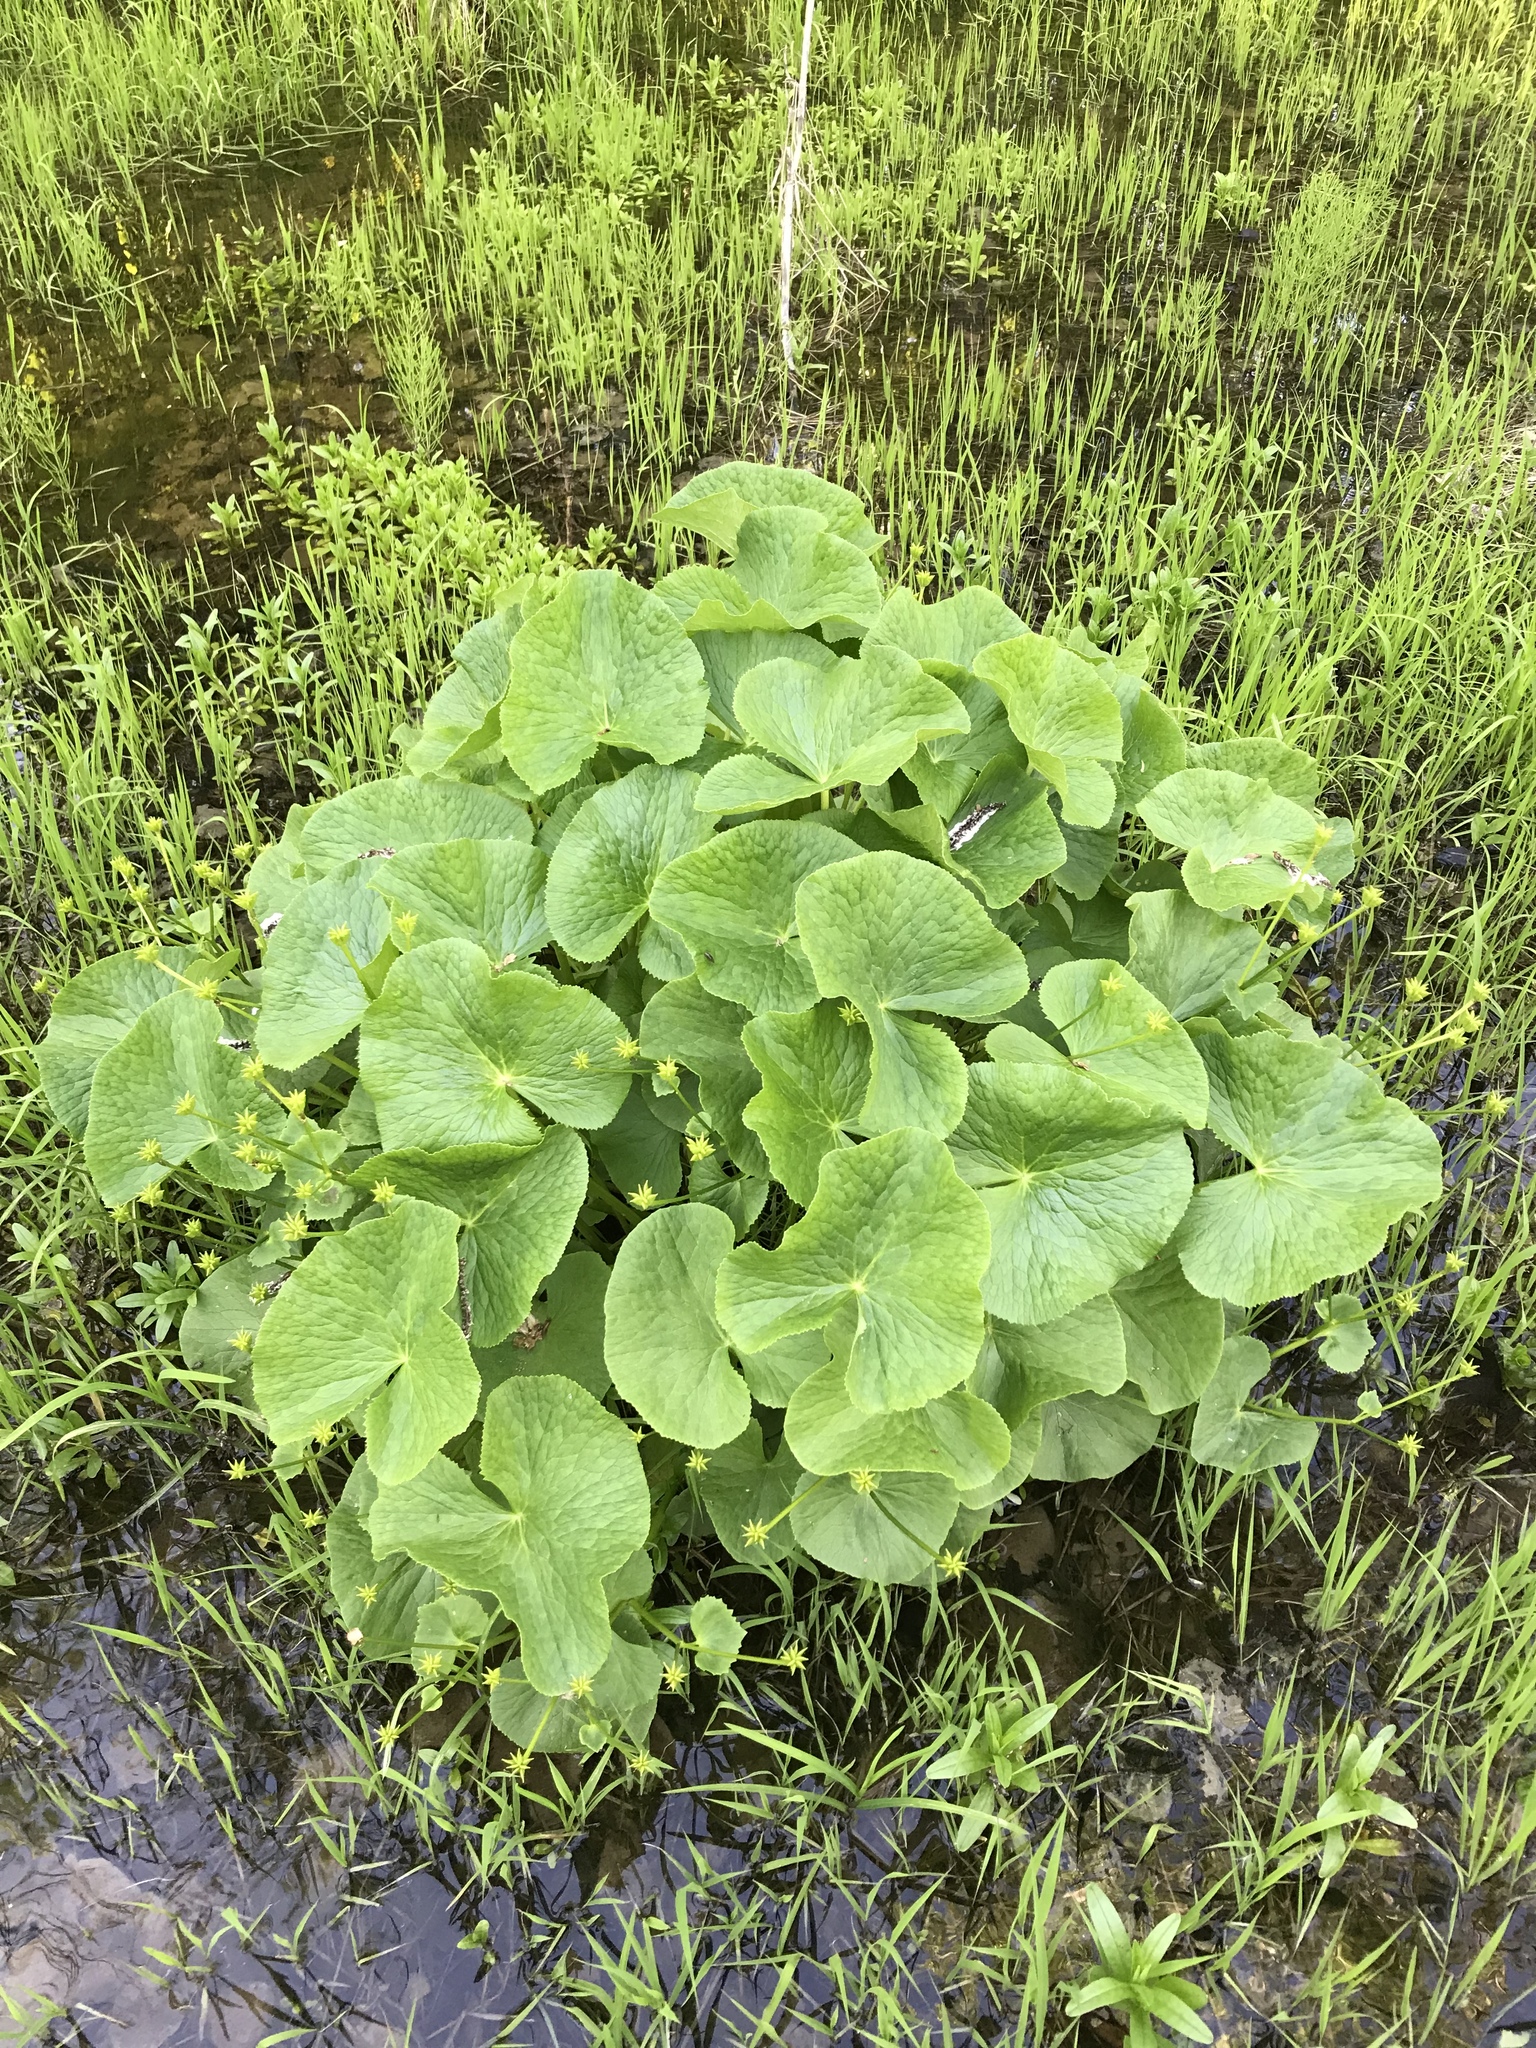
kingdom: Plantae
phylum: Tracheophyta
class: Magnoliopsida
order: Ranunculales
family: Ranunculaceae
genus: Caltha
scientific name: Caltha palustris
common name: Marsh marigold
